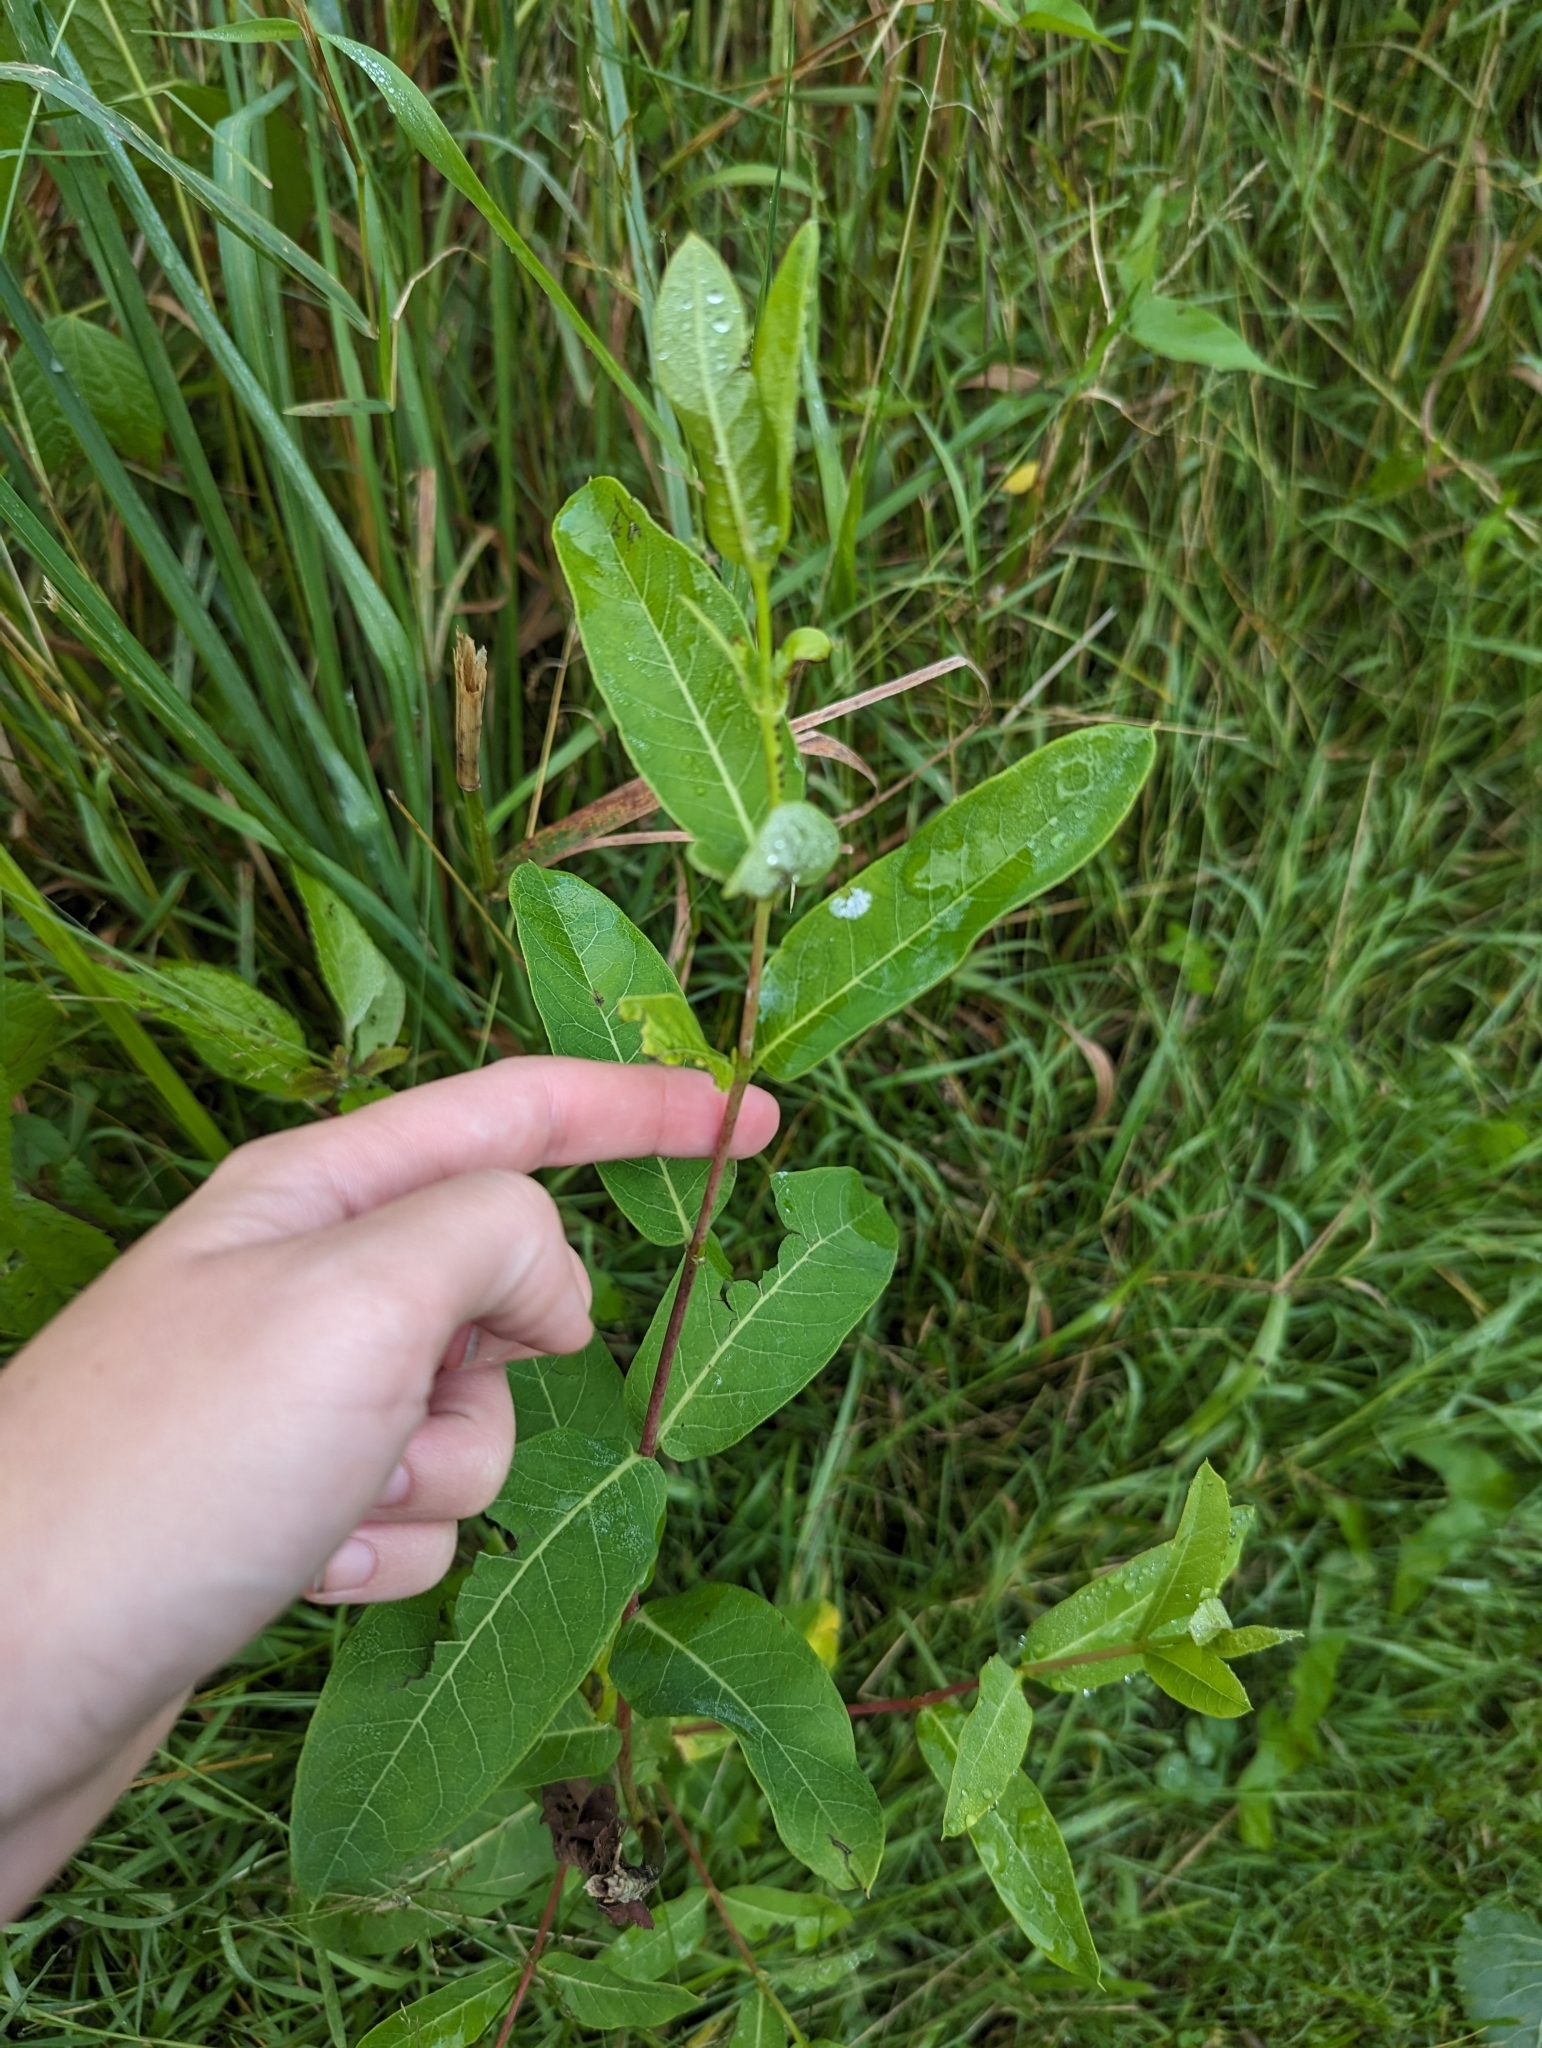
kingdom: Plantae
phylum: Tracheophyta
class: Magnoliopsida
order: Gentianales
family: Apocynaceae
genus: Apocynum
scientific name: Apocynum cannabinum
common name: Hemp dogbane
